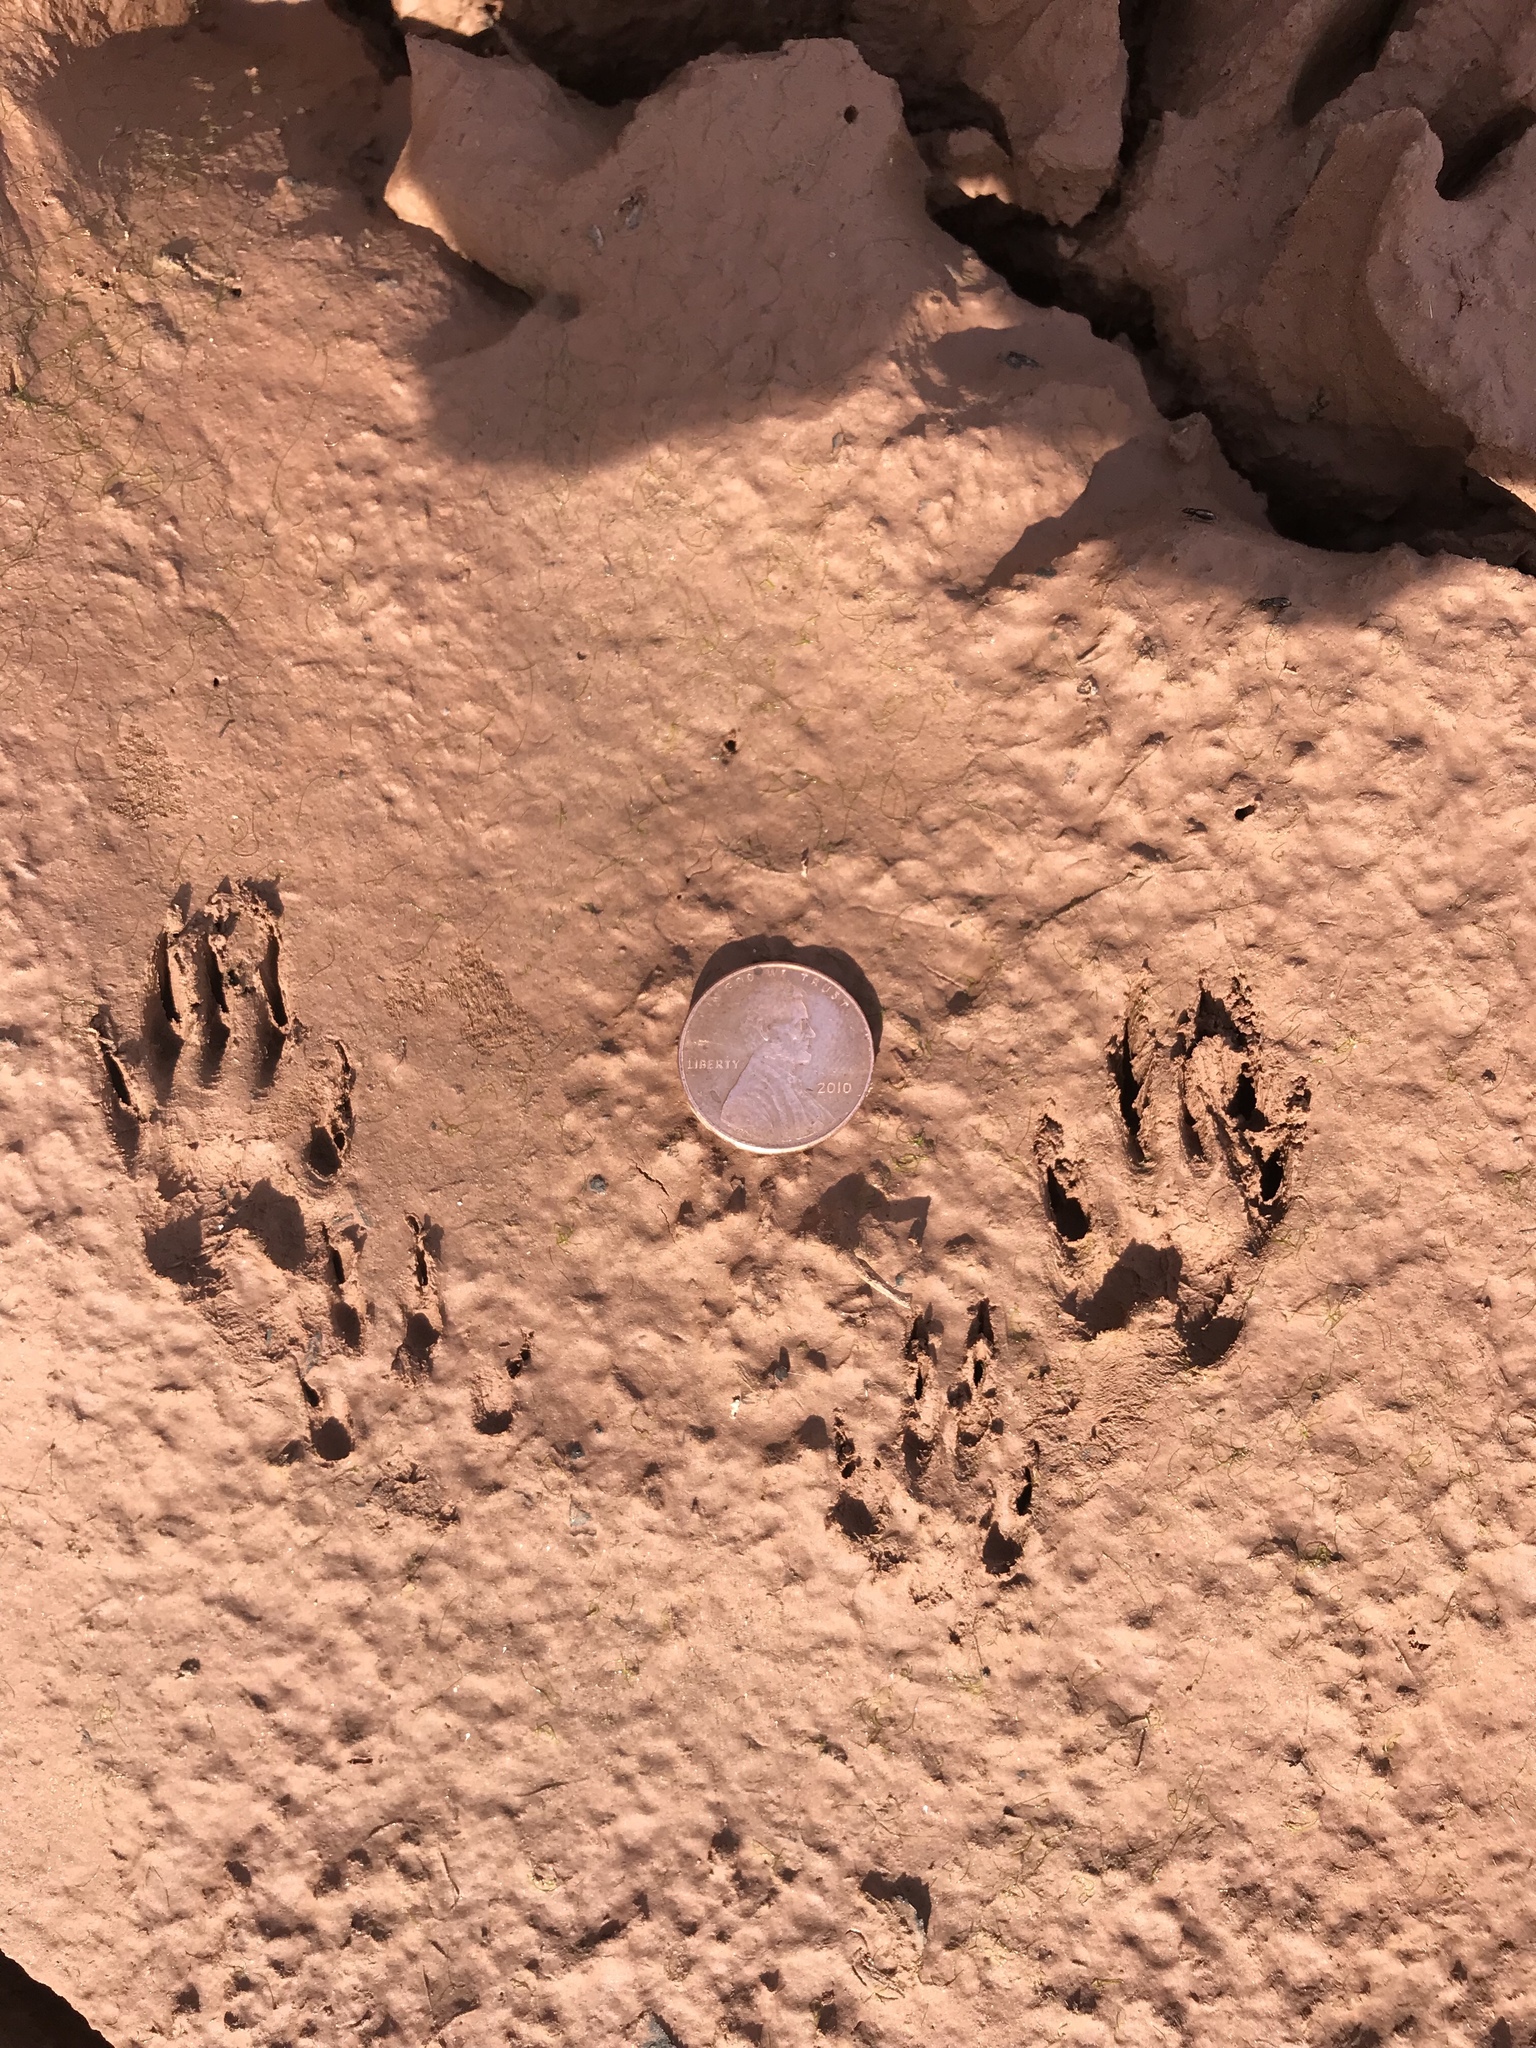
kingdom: Animalia
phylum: Chordata
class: Mammalia
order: Rodentia
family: Sciuridae
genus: Sciurus
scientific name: Sciurus niger
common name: Fox squirrel
